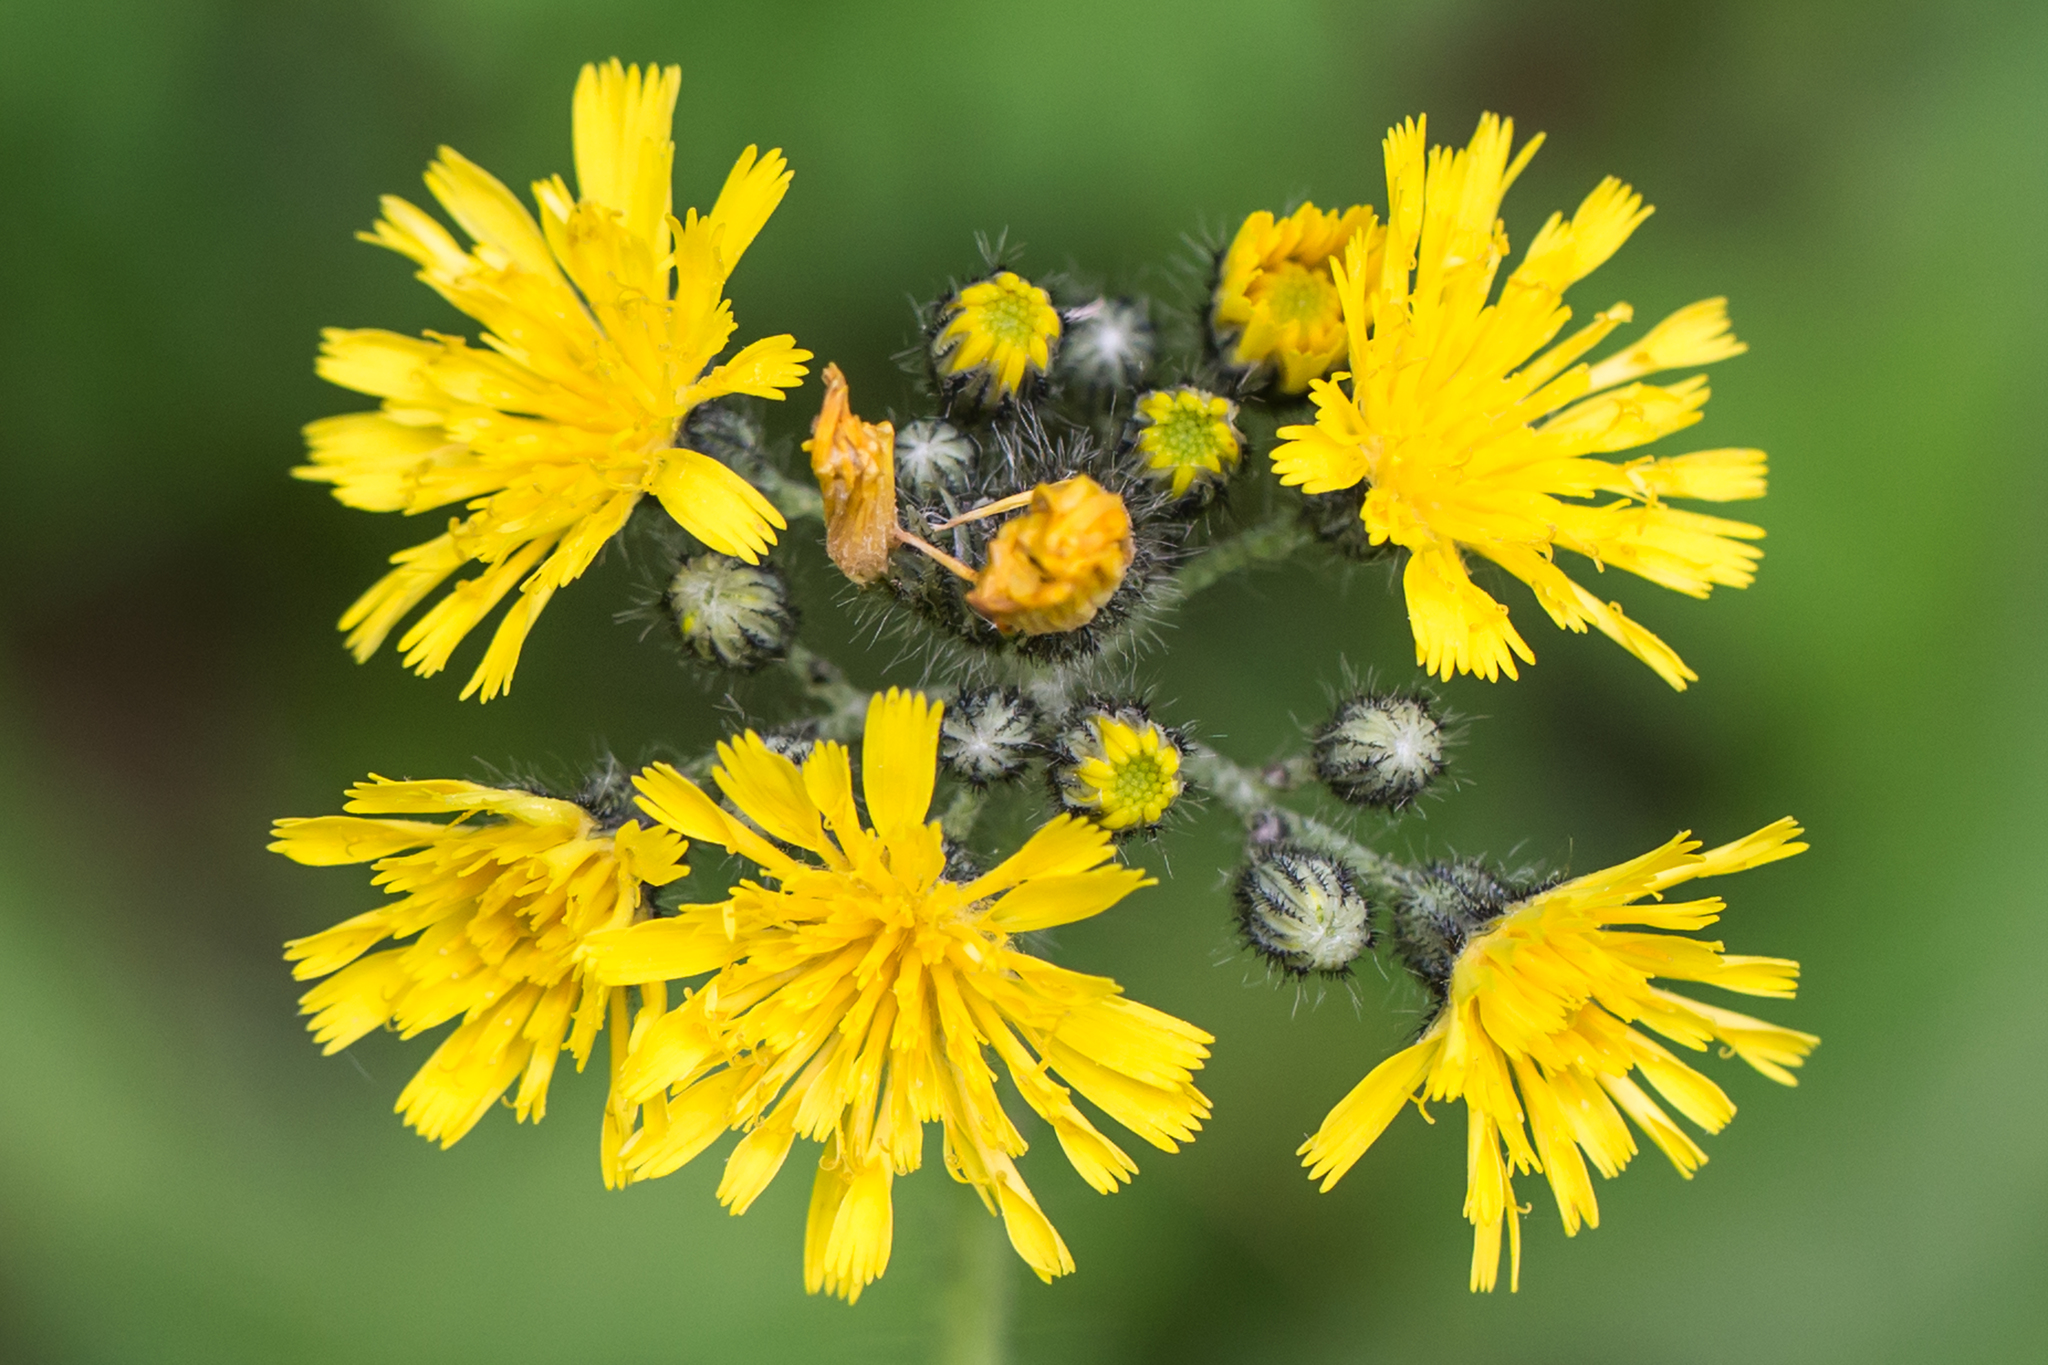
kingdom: Plantae
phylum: Tracheophyta
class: Magnoliopsida
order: Asterales
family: Asteraceae
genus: Pilosella
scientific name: Pilosella caespitosa
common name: Yellow fox-and-cubs
